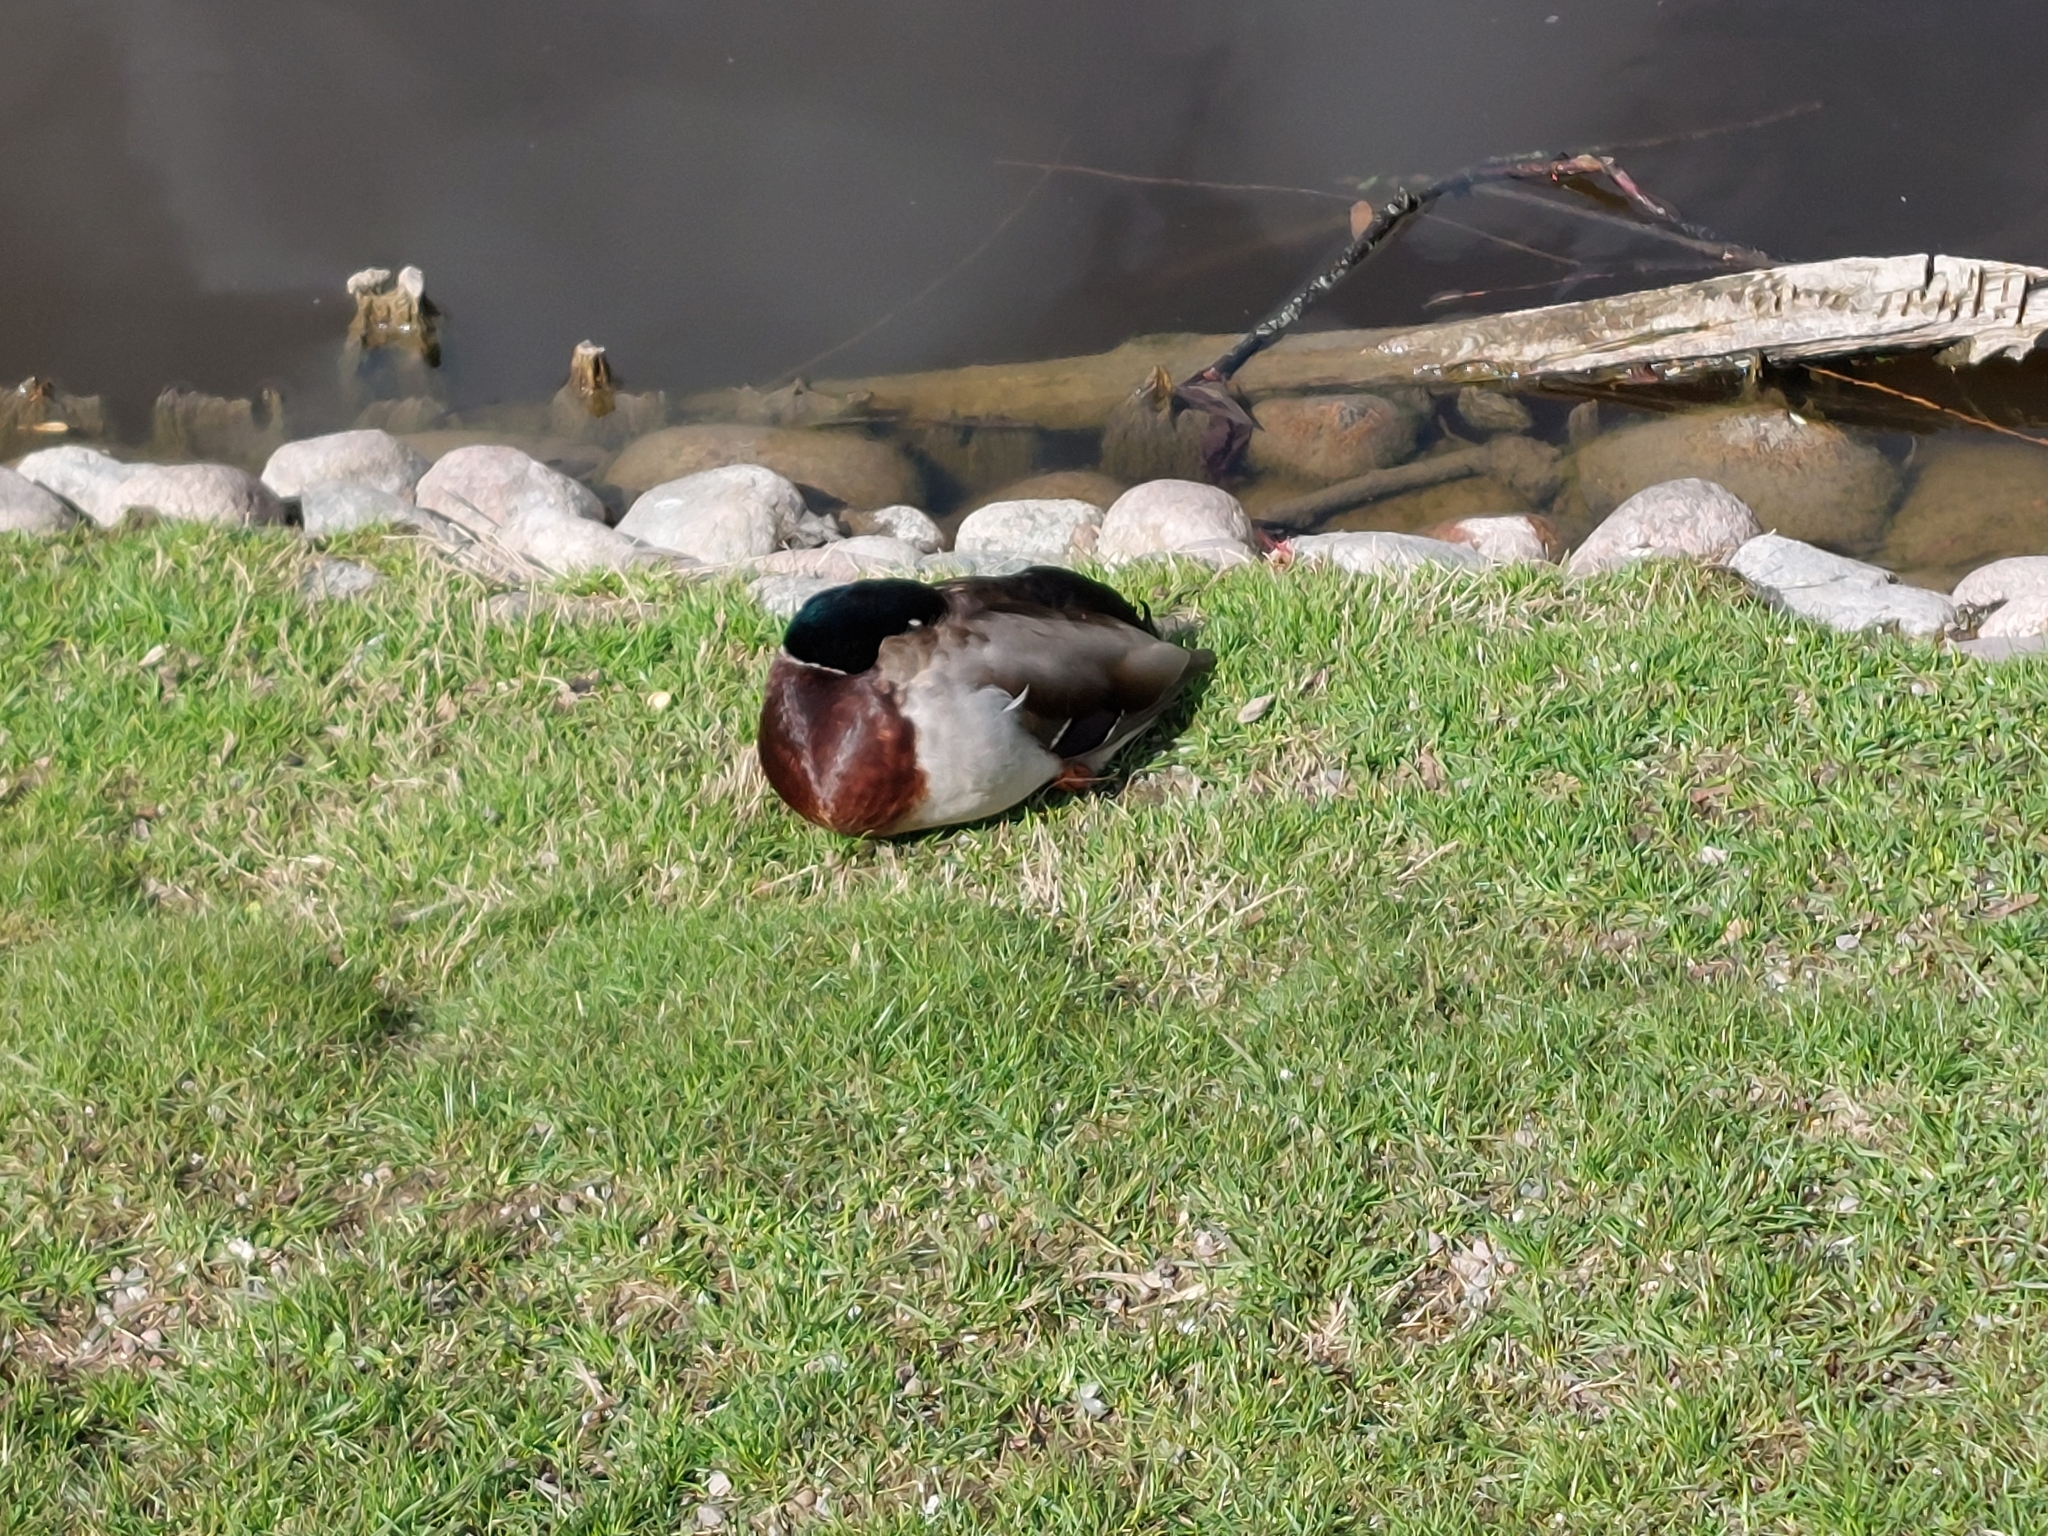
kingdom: Animalia
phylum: Chordata
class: Aves
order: Anseriformes
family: Anatidae
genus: Anas
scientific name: Anas platyrhynchos
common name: Mallard
